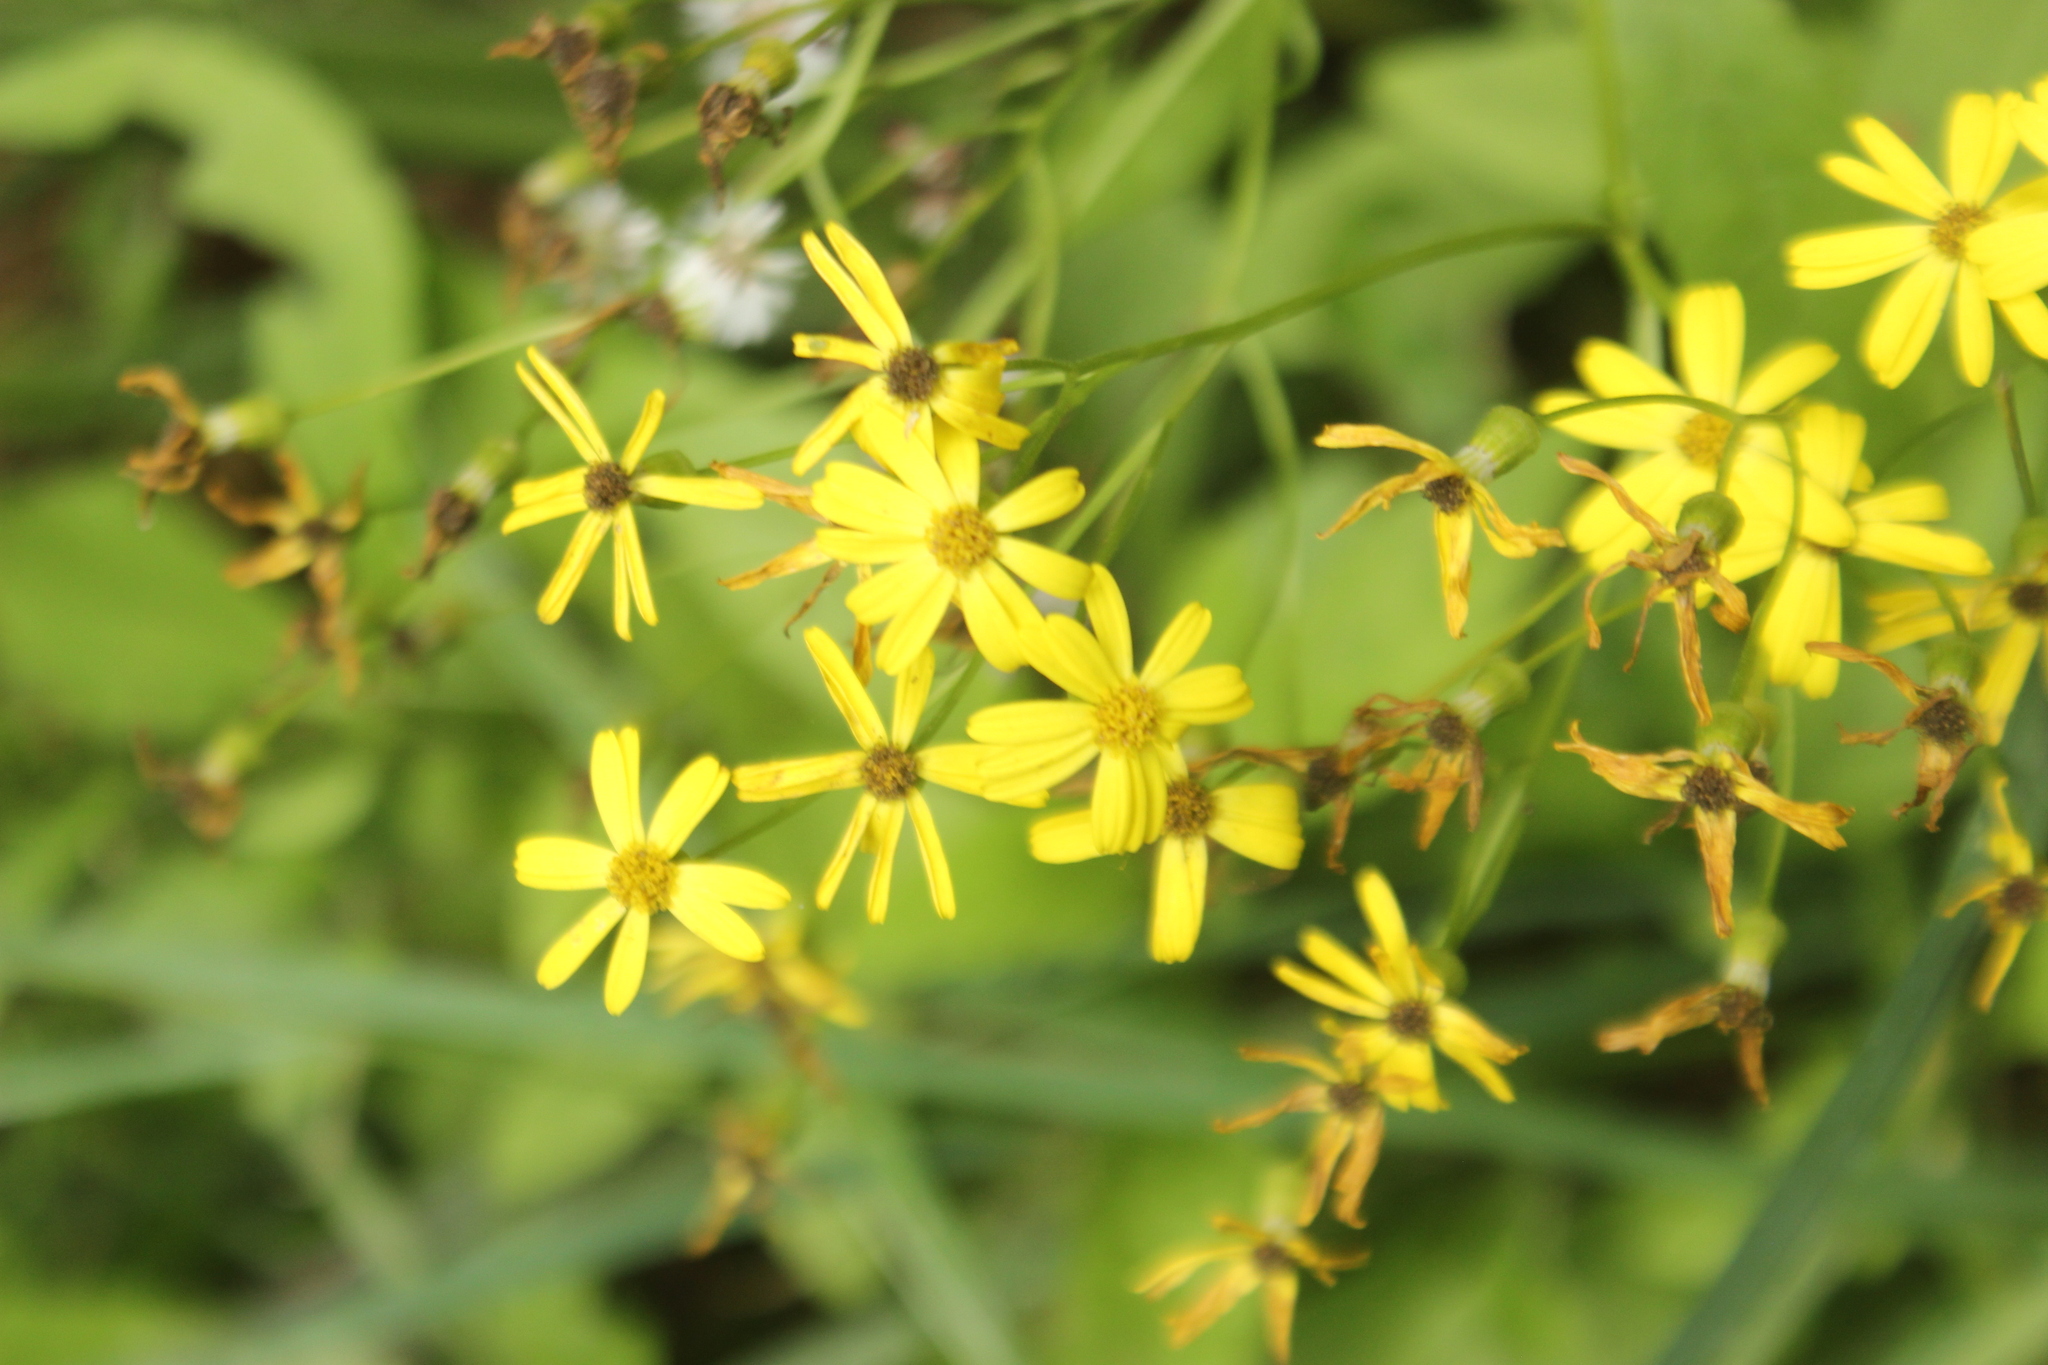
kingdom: Plantae
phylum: Tracheophyta
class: Magnoliopsida
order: Asterales
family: Asteraceae
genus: Senecio
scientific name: Senecio rufiglandulosus
